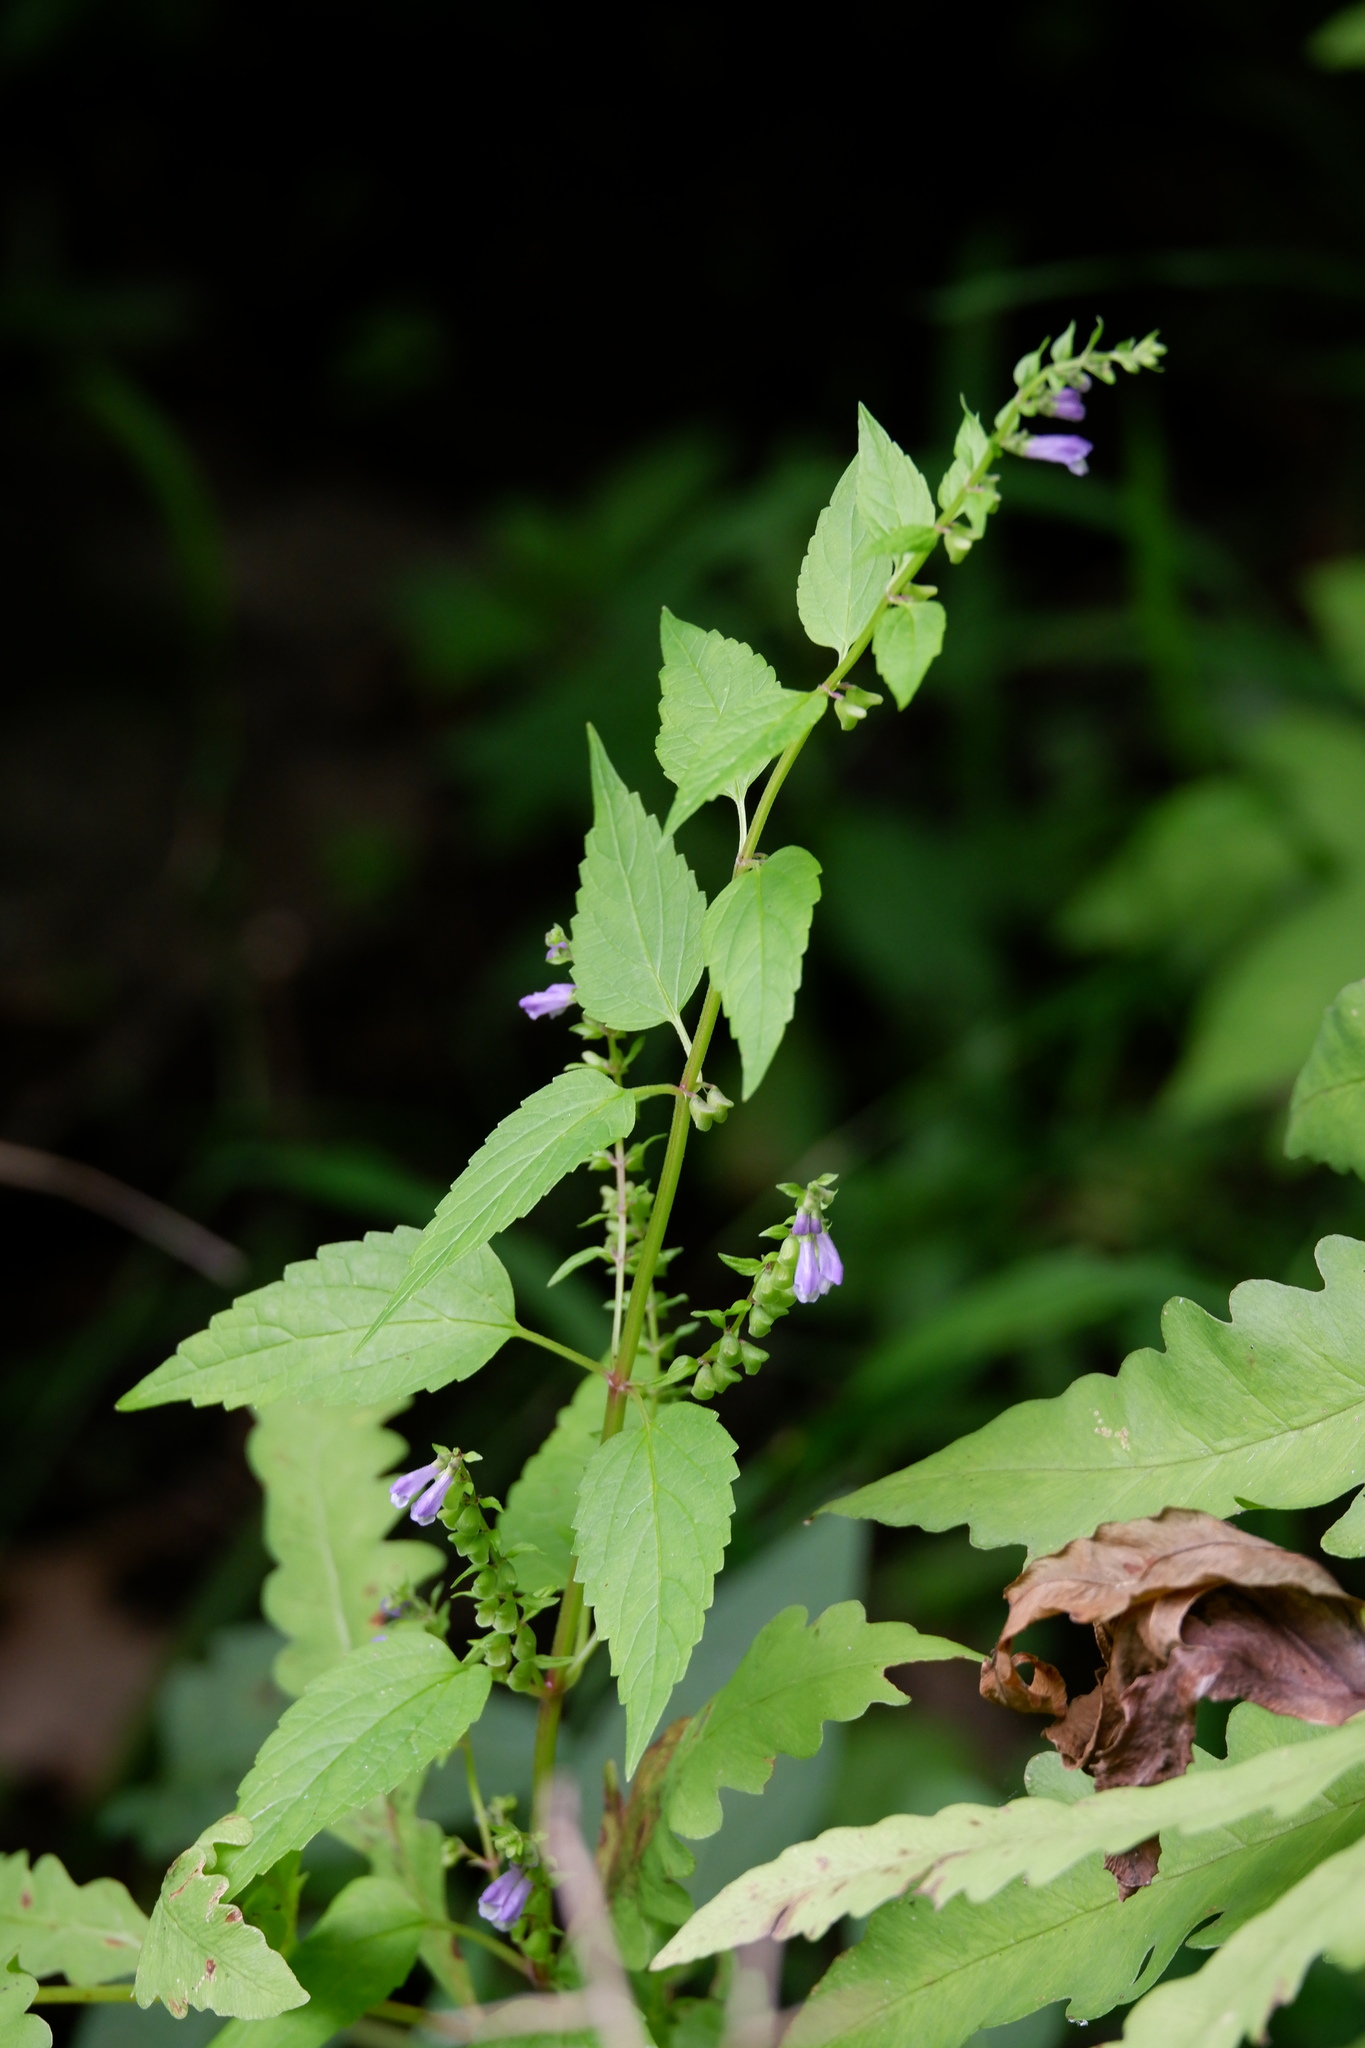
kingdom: Plantae
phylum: Tracheophyta
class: Magnoliopsida
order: Lamiales
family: Lamiaceae
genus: Scutellaria
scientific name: Scutellaria lateriflora
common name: Blue skullcap
